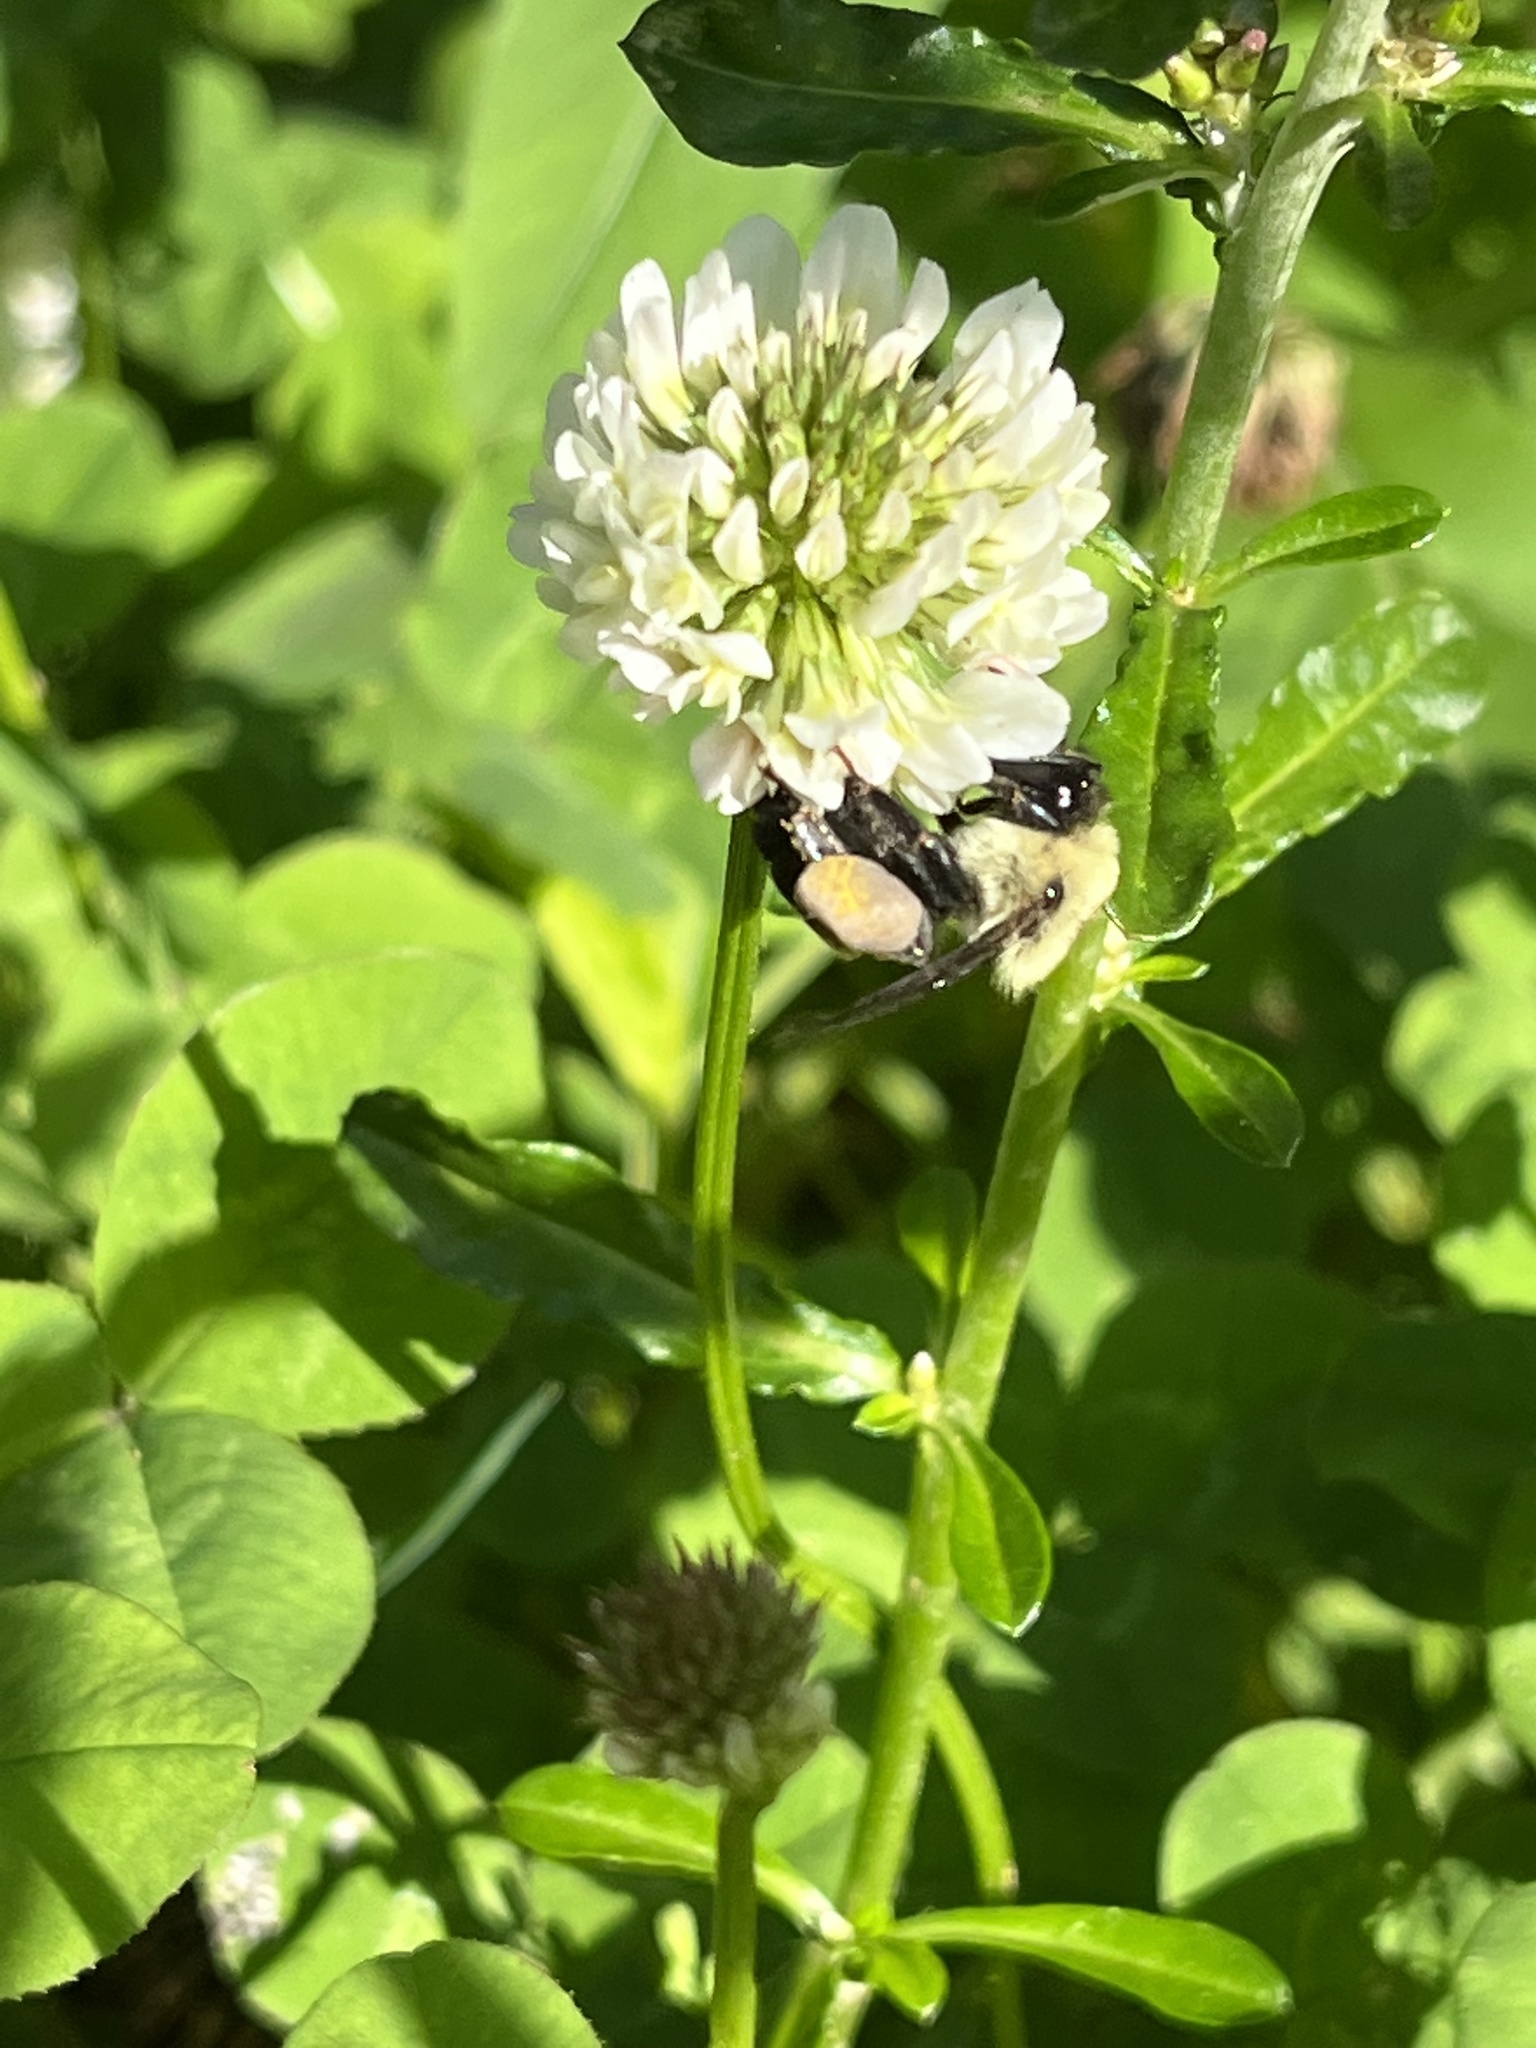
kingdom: Animalia
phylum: Arthropoda
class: Insecta
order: Hymenoptera
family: Apidae
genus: Bombus
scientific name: Bombus griseocollis
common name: Brown-belted bumble bee
